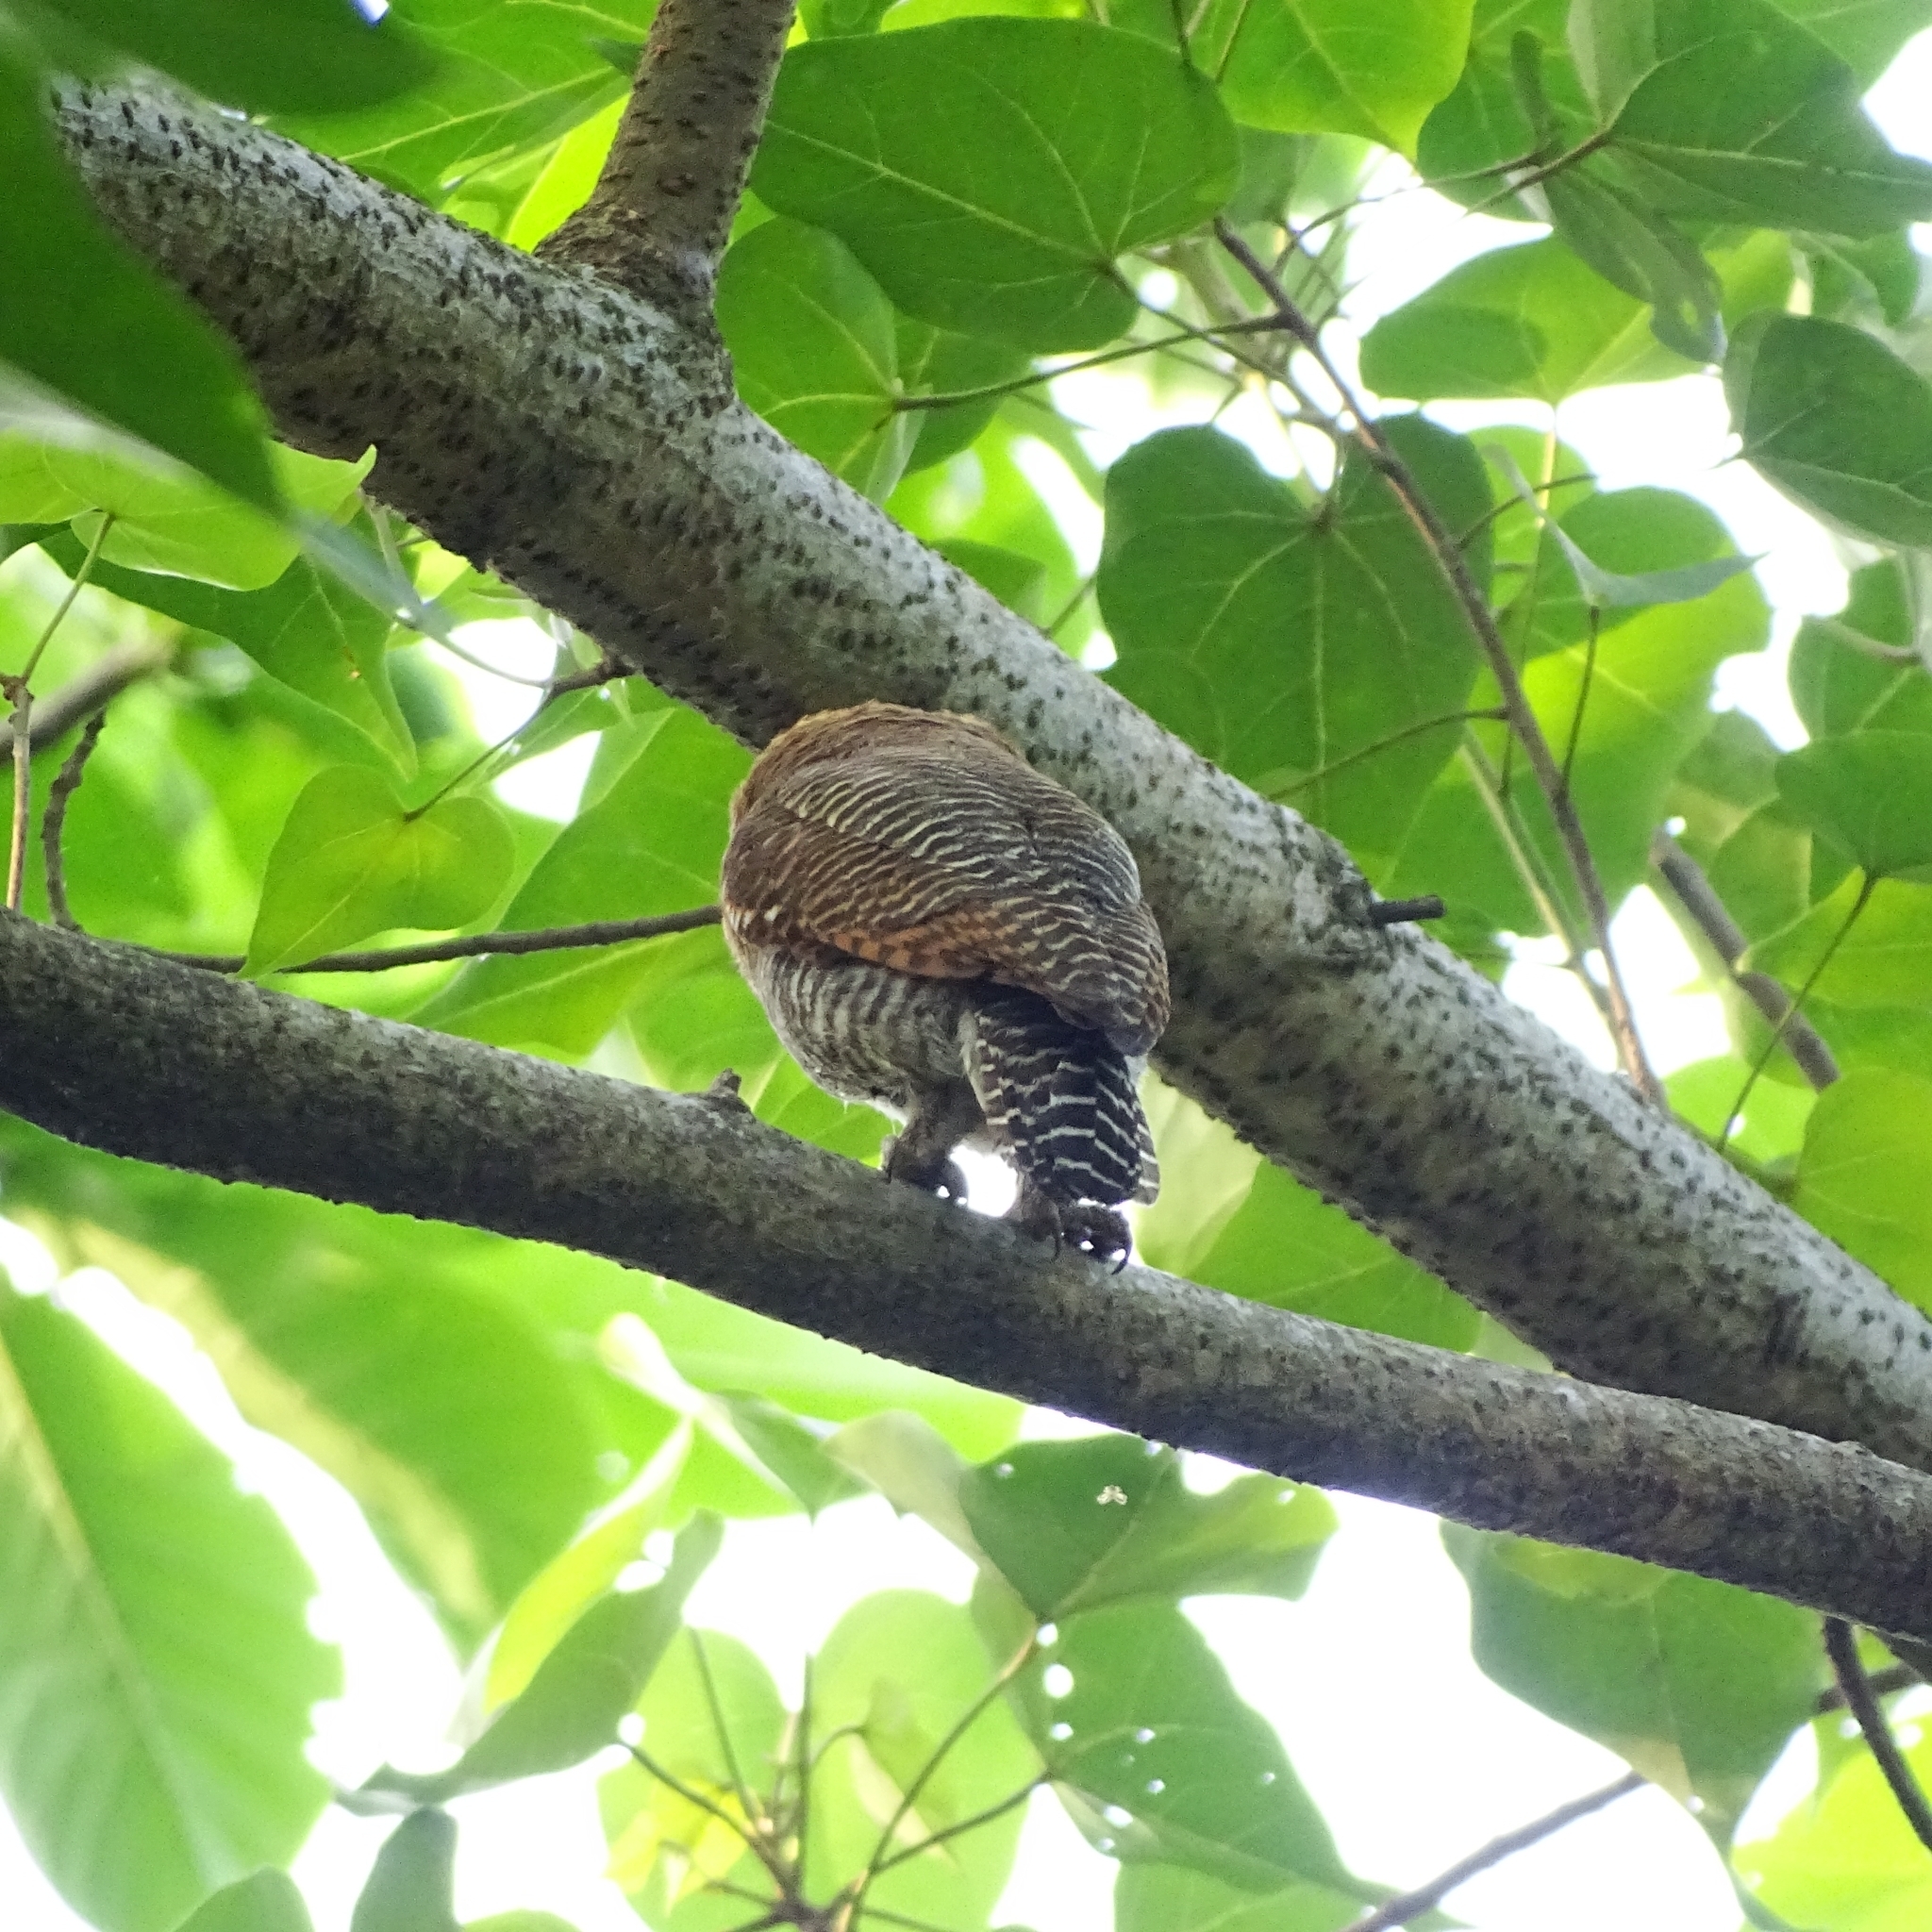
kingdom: Animalia
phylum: Chordata
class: Aves
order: Strigiformes
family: Strigidae
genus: Glaucidium
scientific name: Glaucidium radiatum
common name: Jungle owlet
